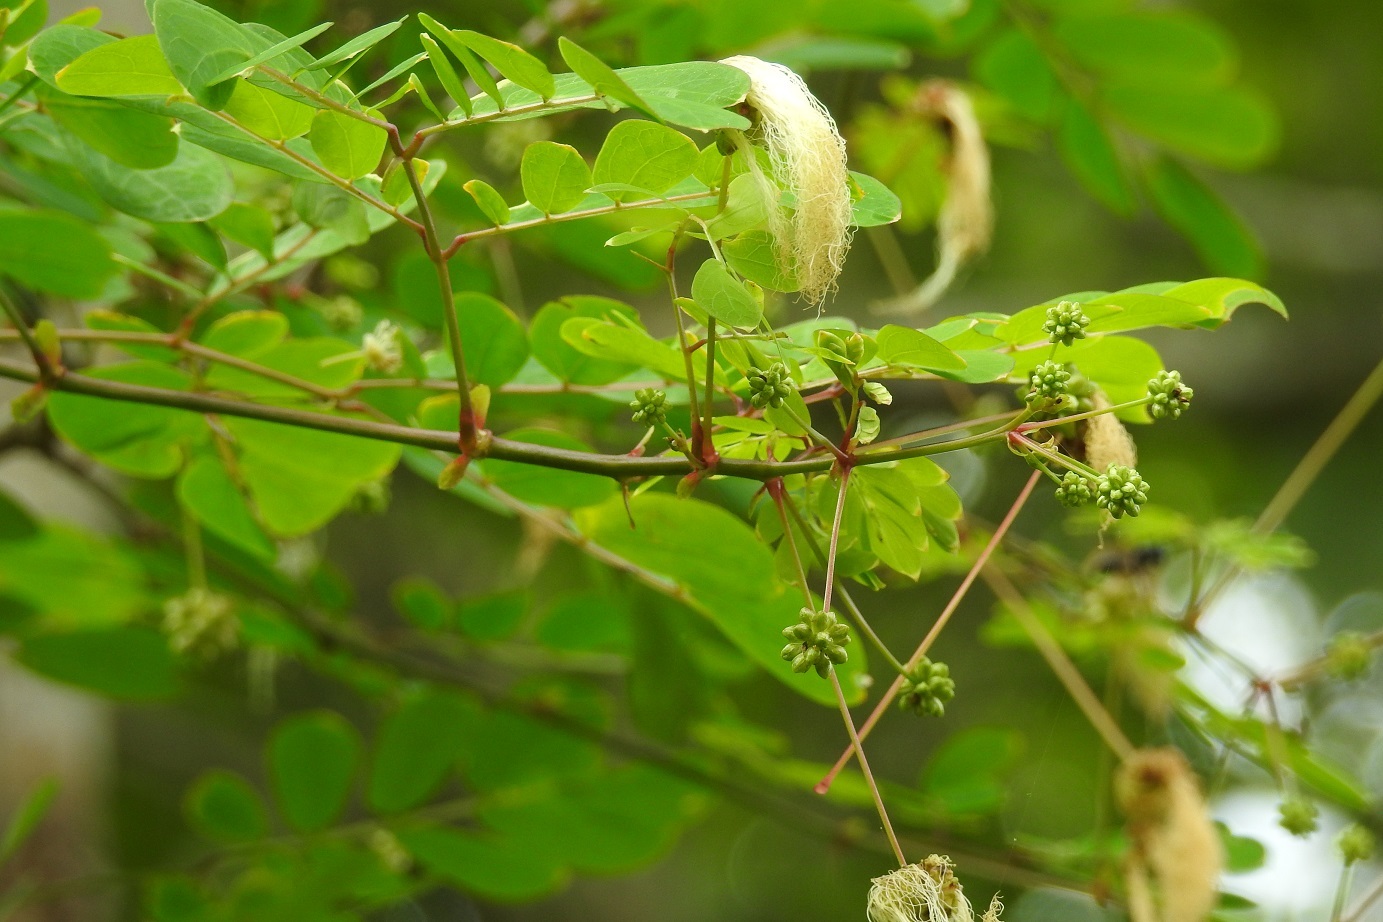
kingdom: Plantae
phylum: Tracheophyta
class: Magnoliopsida
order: Fabales
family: Fabaceae
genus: Zapoteca
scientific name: Zapoteca formosa
